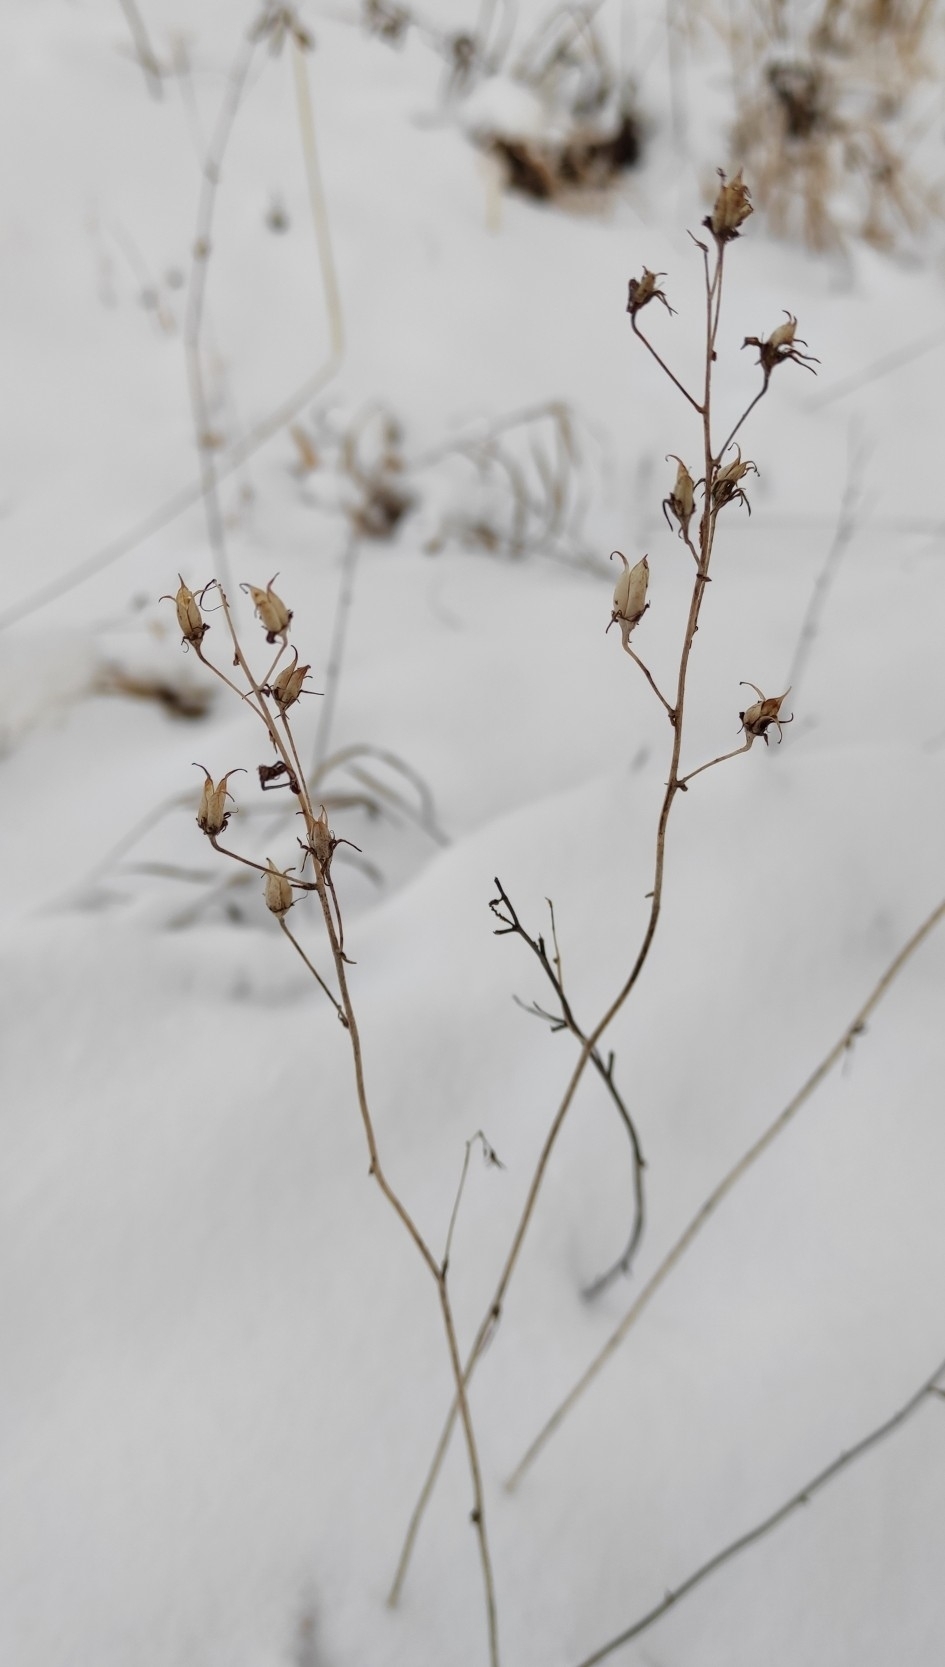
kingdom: Plantae
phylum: Tracheophyta
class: Liliopsida
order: Liliales
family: Melanthiaceae
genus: Anticlea
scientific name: Anticlea sibirica
